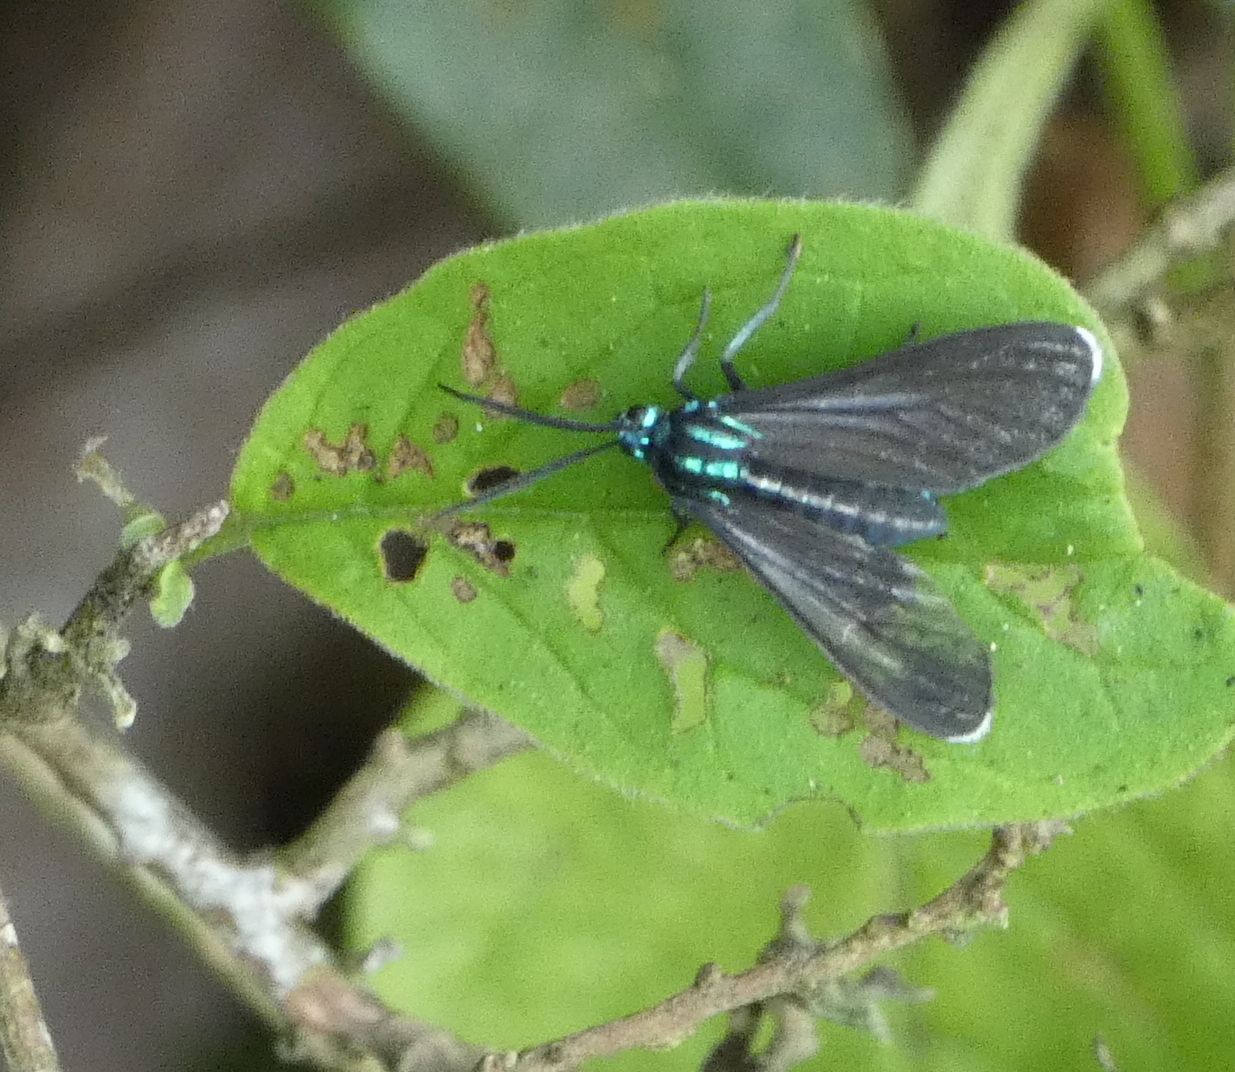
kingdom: Animalia
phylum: Arthropoda
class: Insecta
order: Lepidoptera
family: Erebidae
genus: Uranophora
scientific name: Uranophora Napata spec
